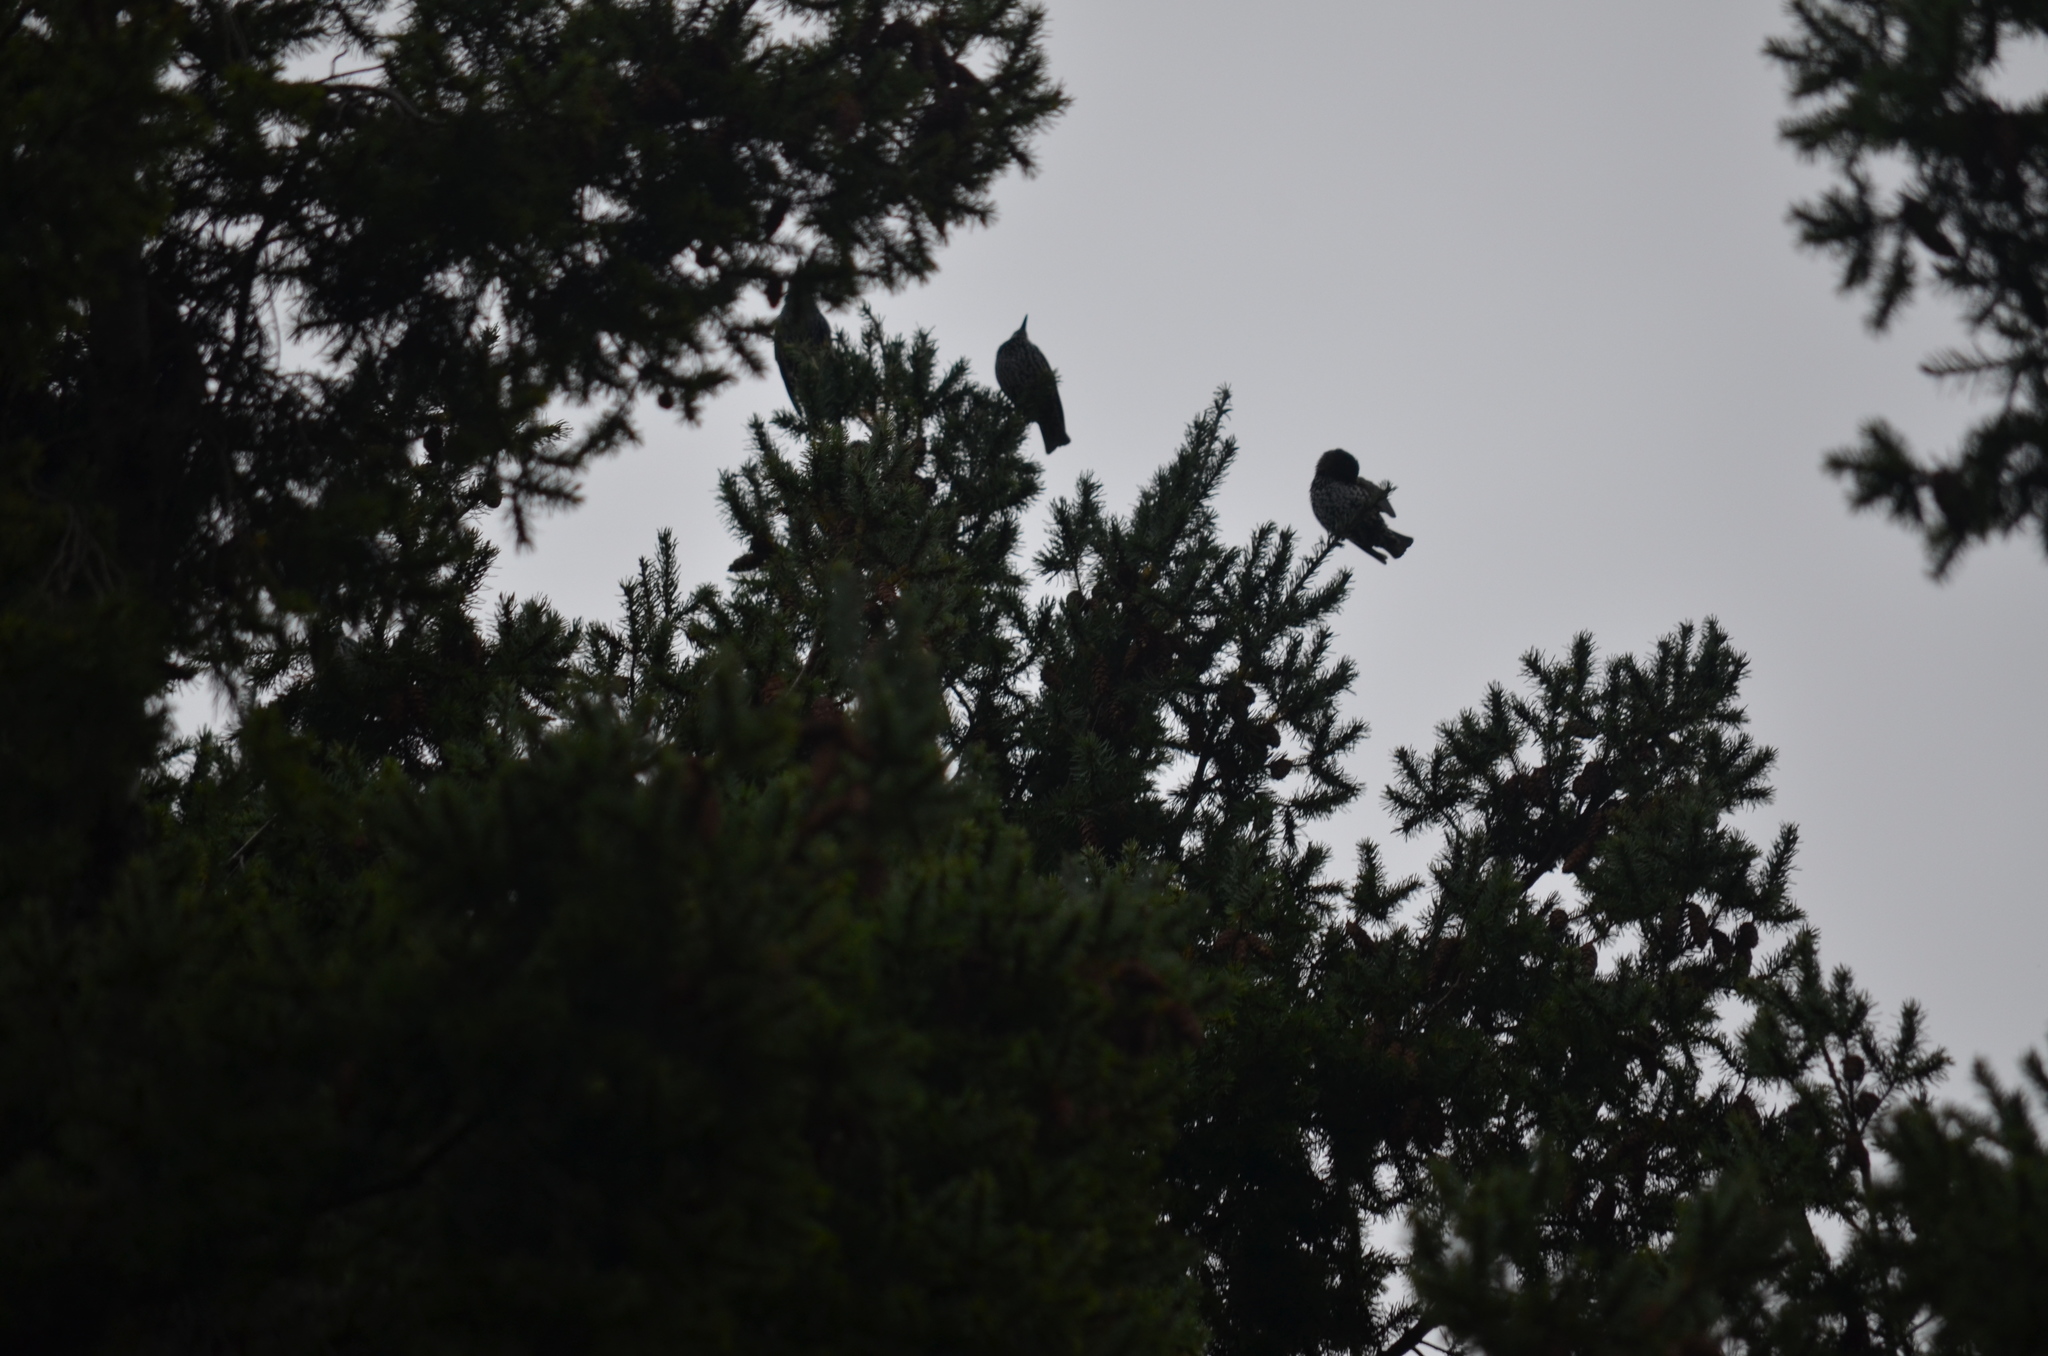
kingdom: Animalia
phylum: Chordata
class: Aves
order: Passeriformes
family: Sturnidae
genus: Sturnus
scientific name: Sturnus vulgaris
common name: Common starling
